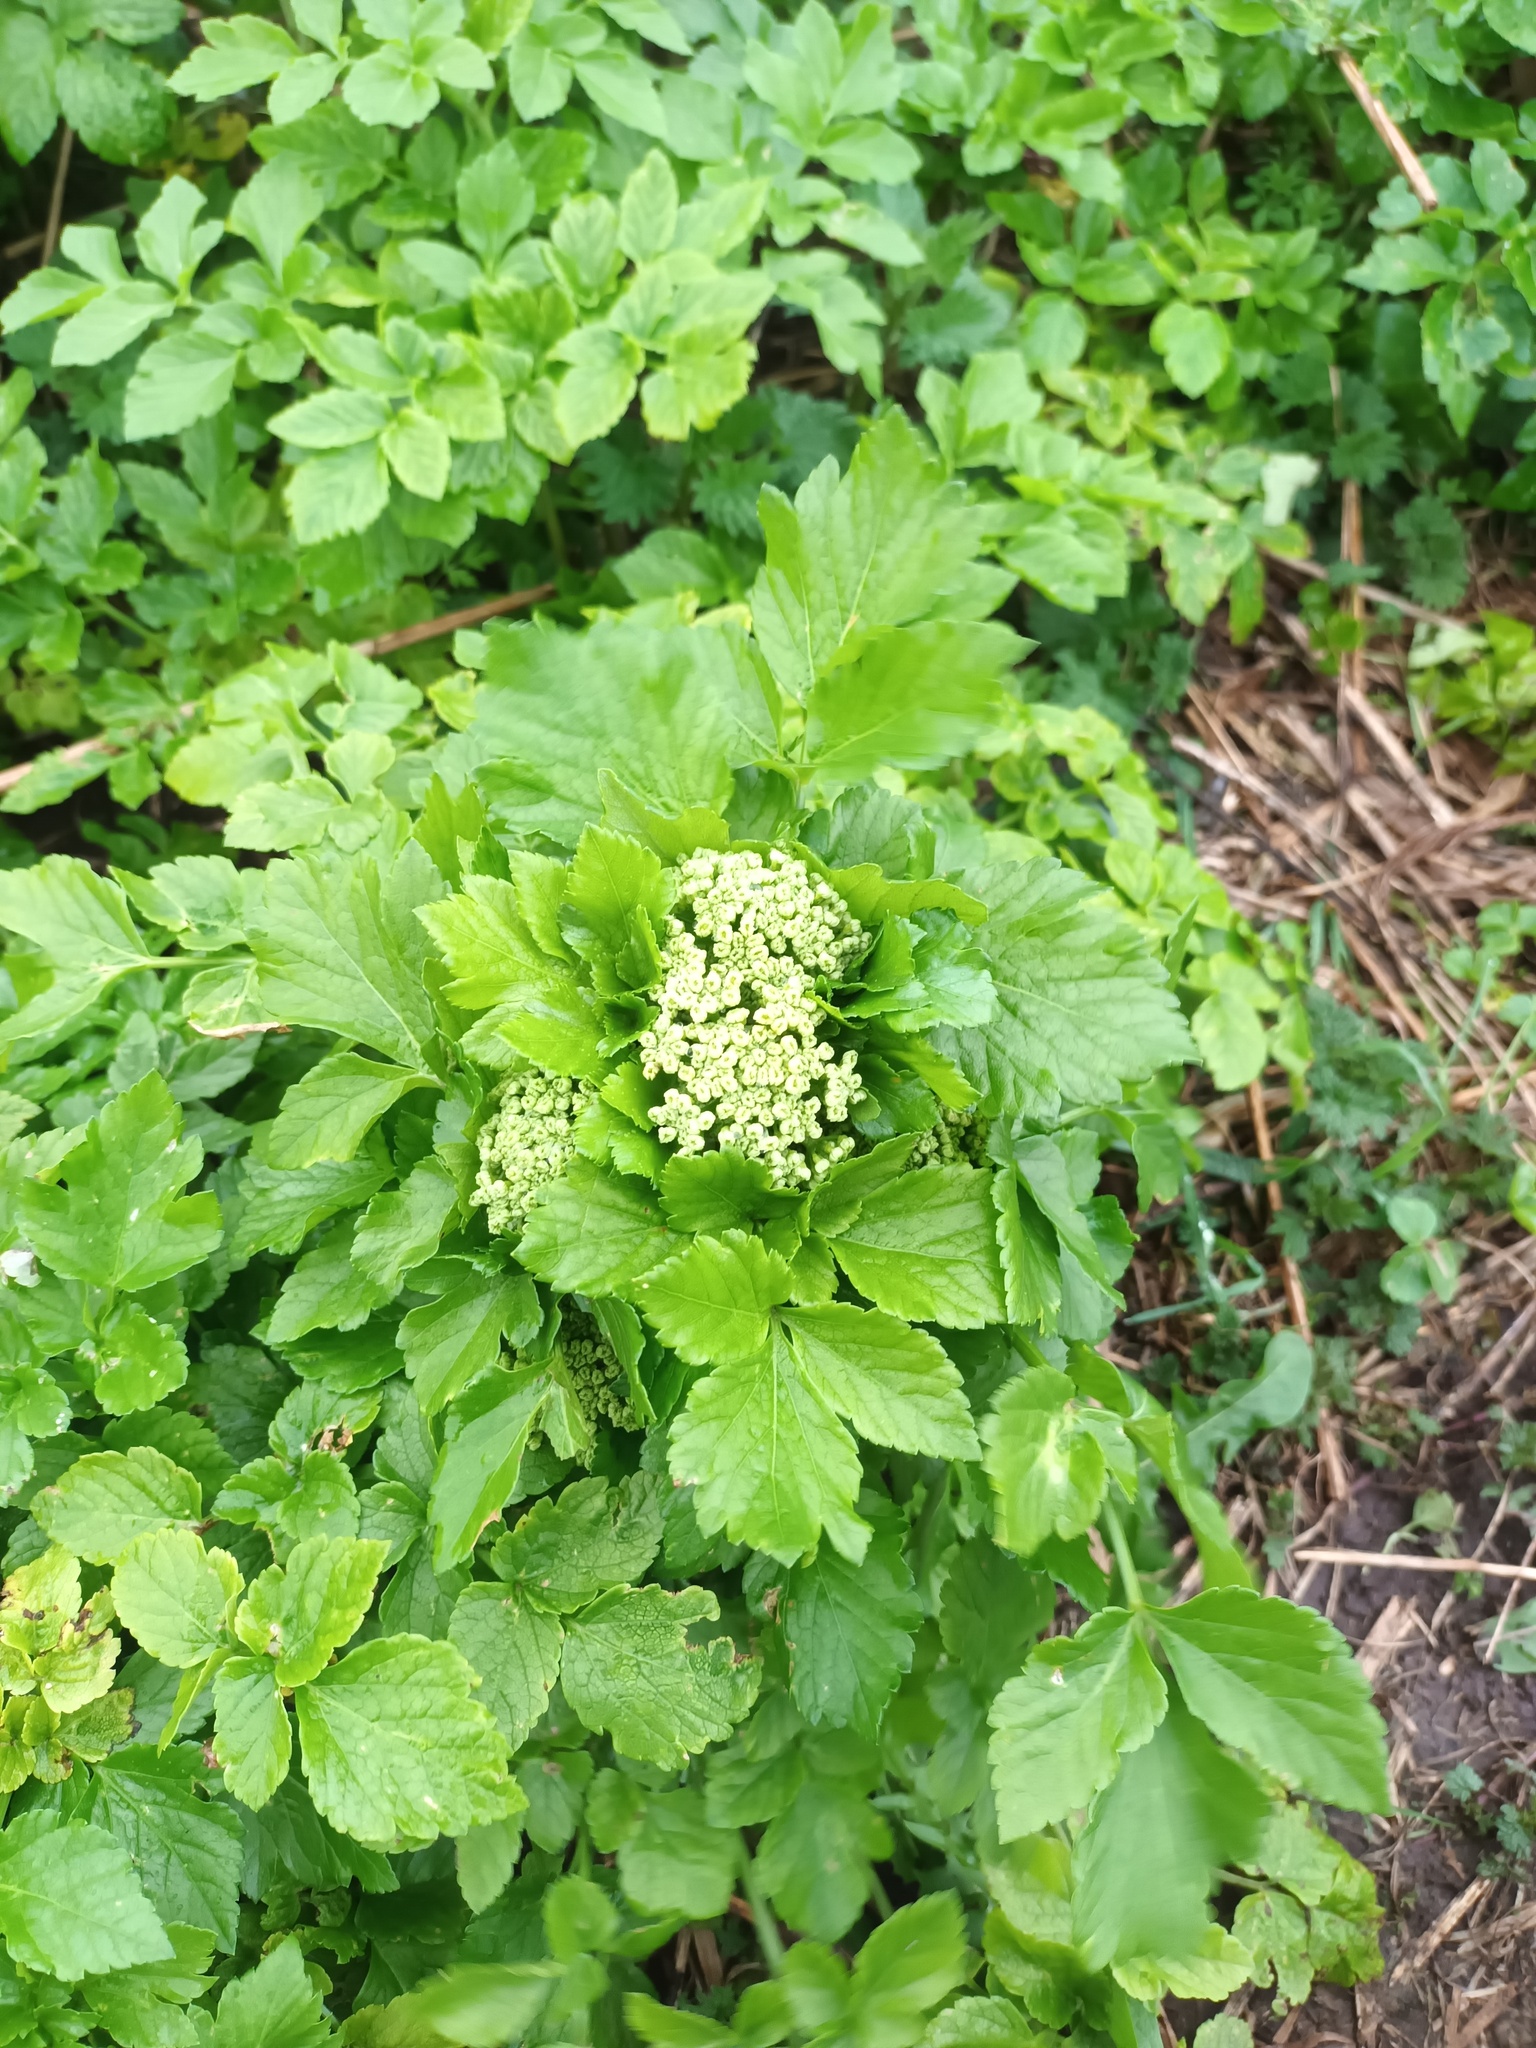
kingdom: Plantae
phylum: Tracheophyta
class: Magnoliopsida
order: Apiales
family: Apiaceae
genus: Smyrnium
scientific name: Smyrnium olusatrum
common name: Alexanders
